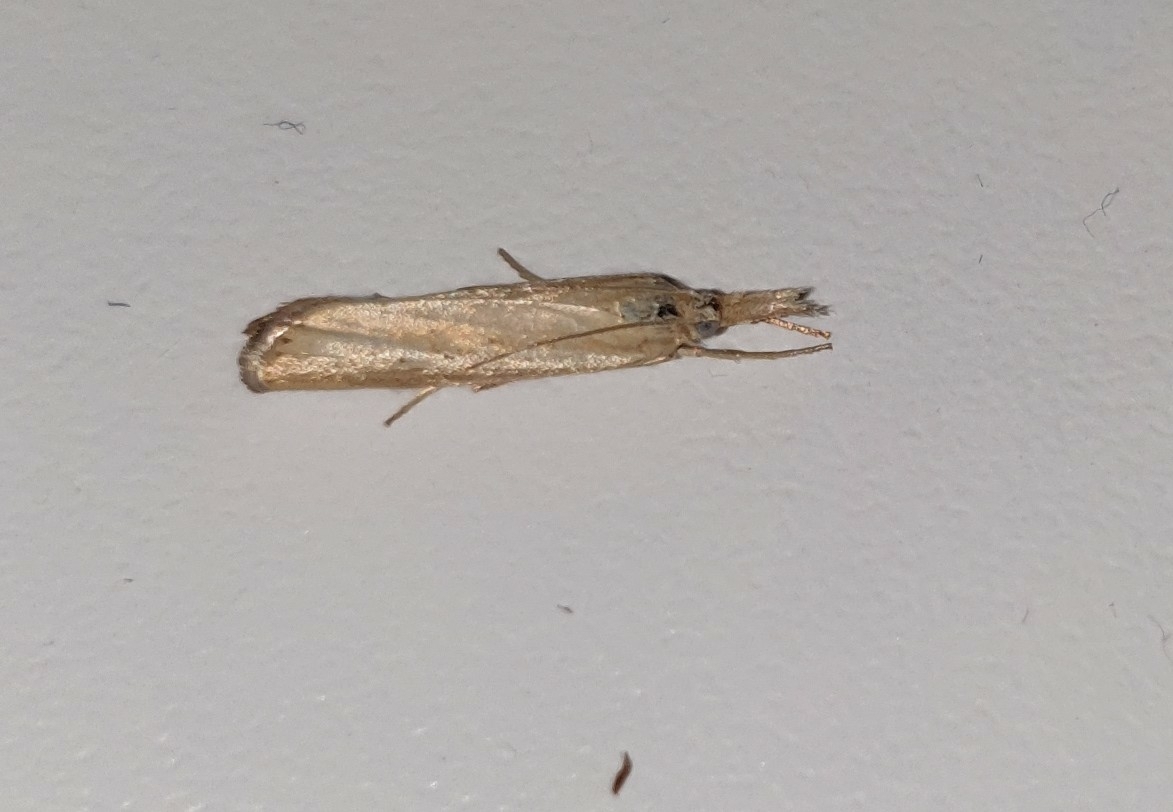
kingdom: Animalia
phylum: Arthropoda
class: Insecta
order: Lepidoptera
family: Crambidae
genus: Agriphila
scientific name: Agriphila straminella
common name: Straw grass-veneer
